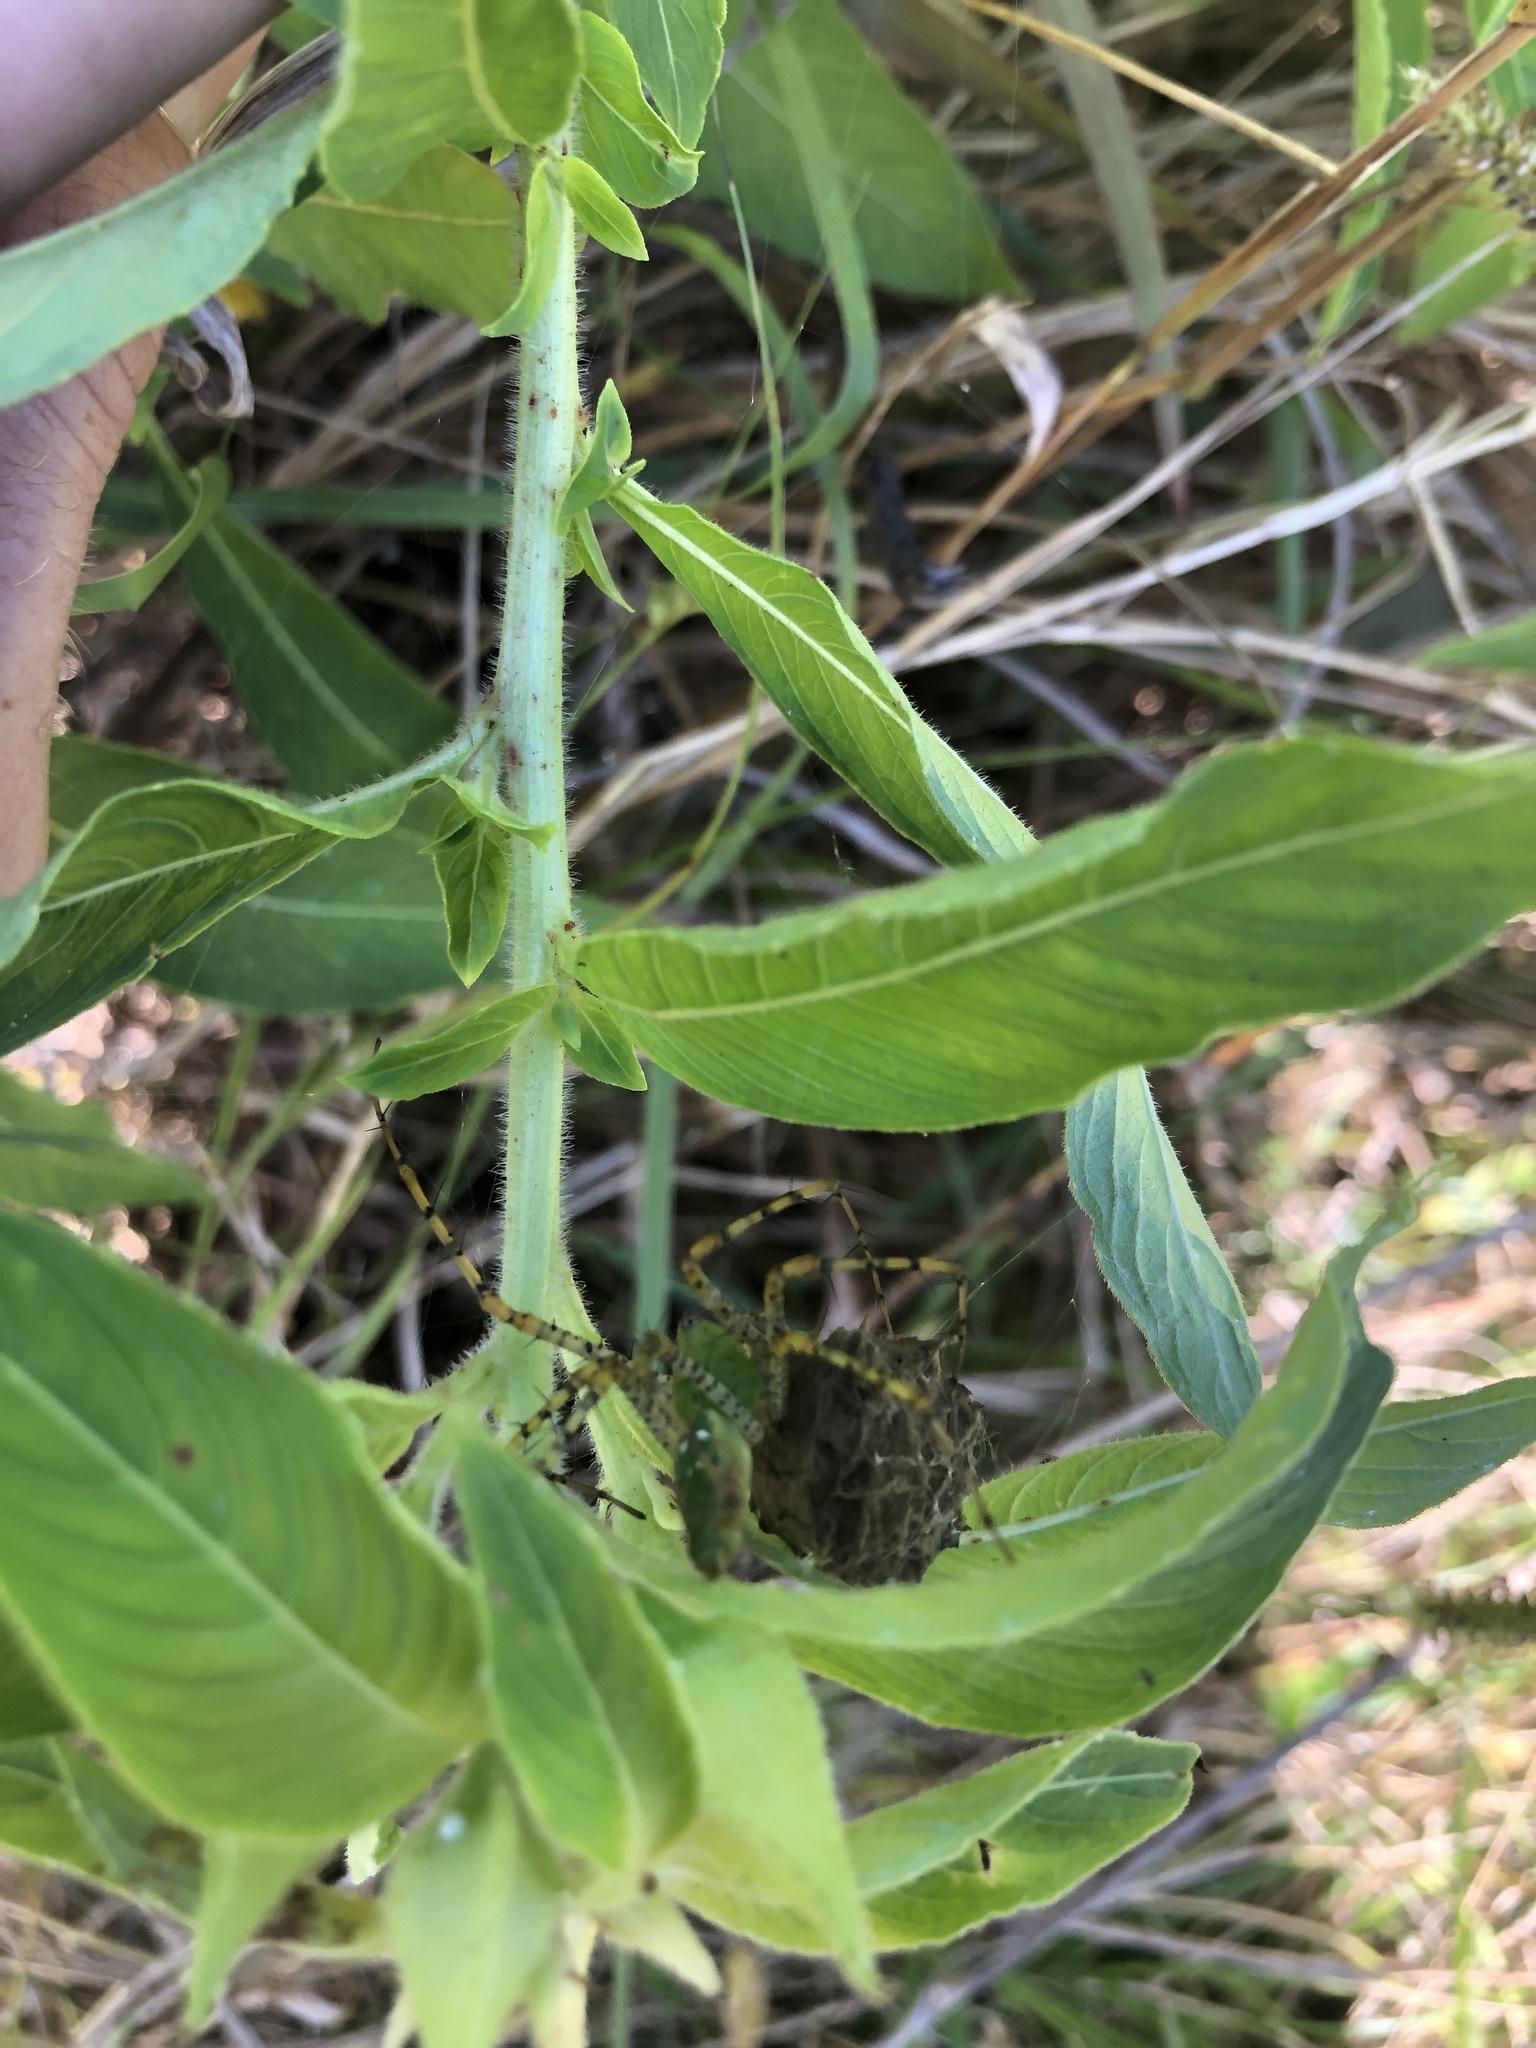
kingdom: Animalia
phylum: Arthropoda
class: Arachnida
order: Araneae
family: Oxyopidae
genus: Peucetia
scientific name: Peucetia viridans
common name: Lynx spiders
